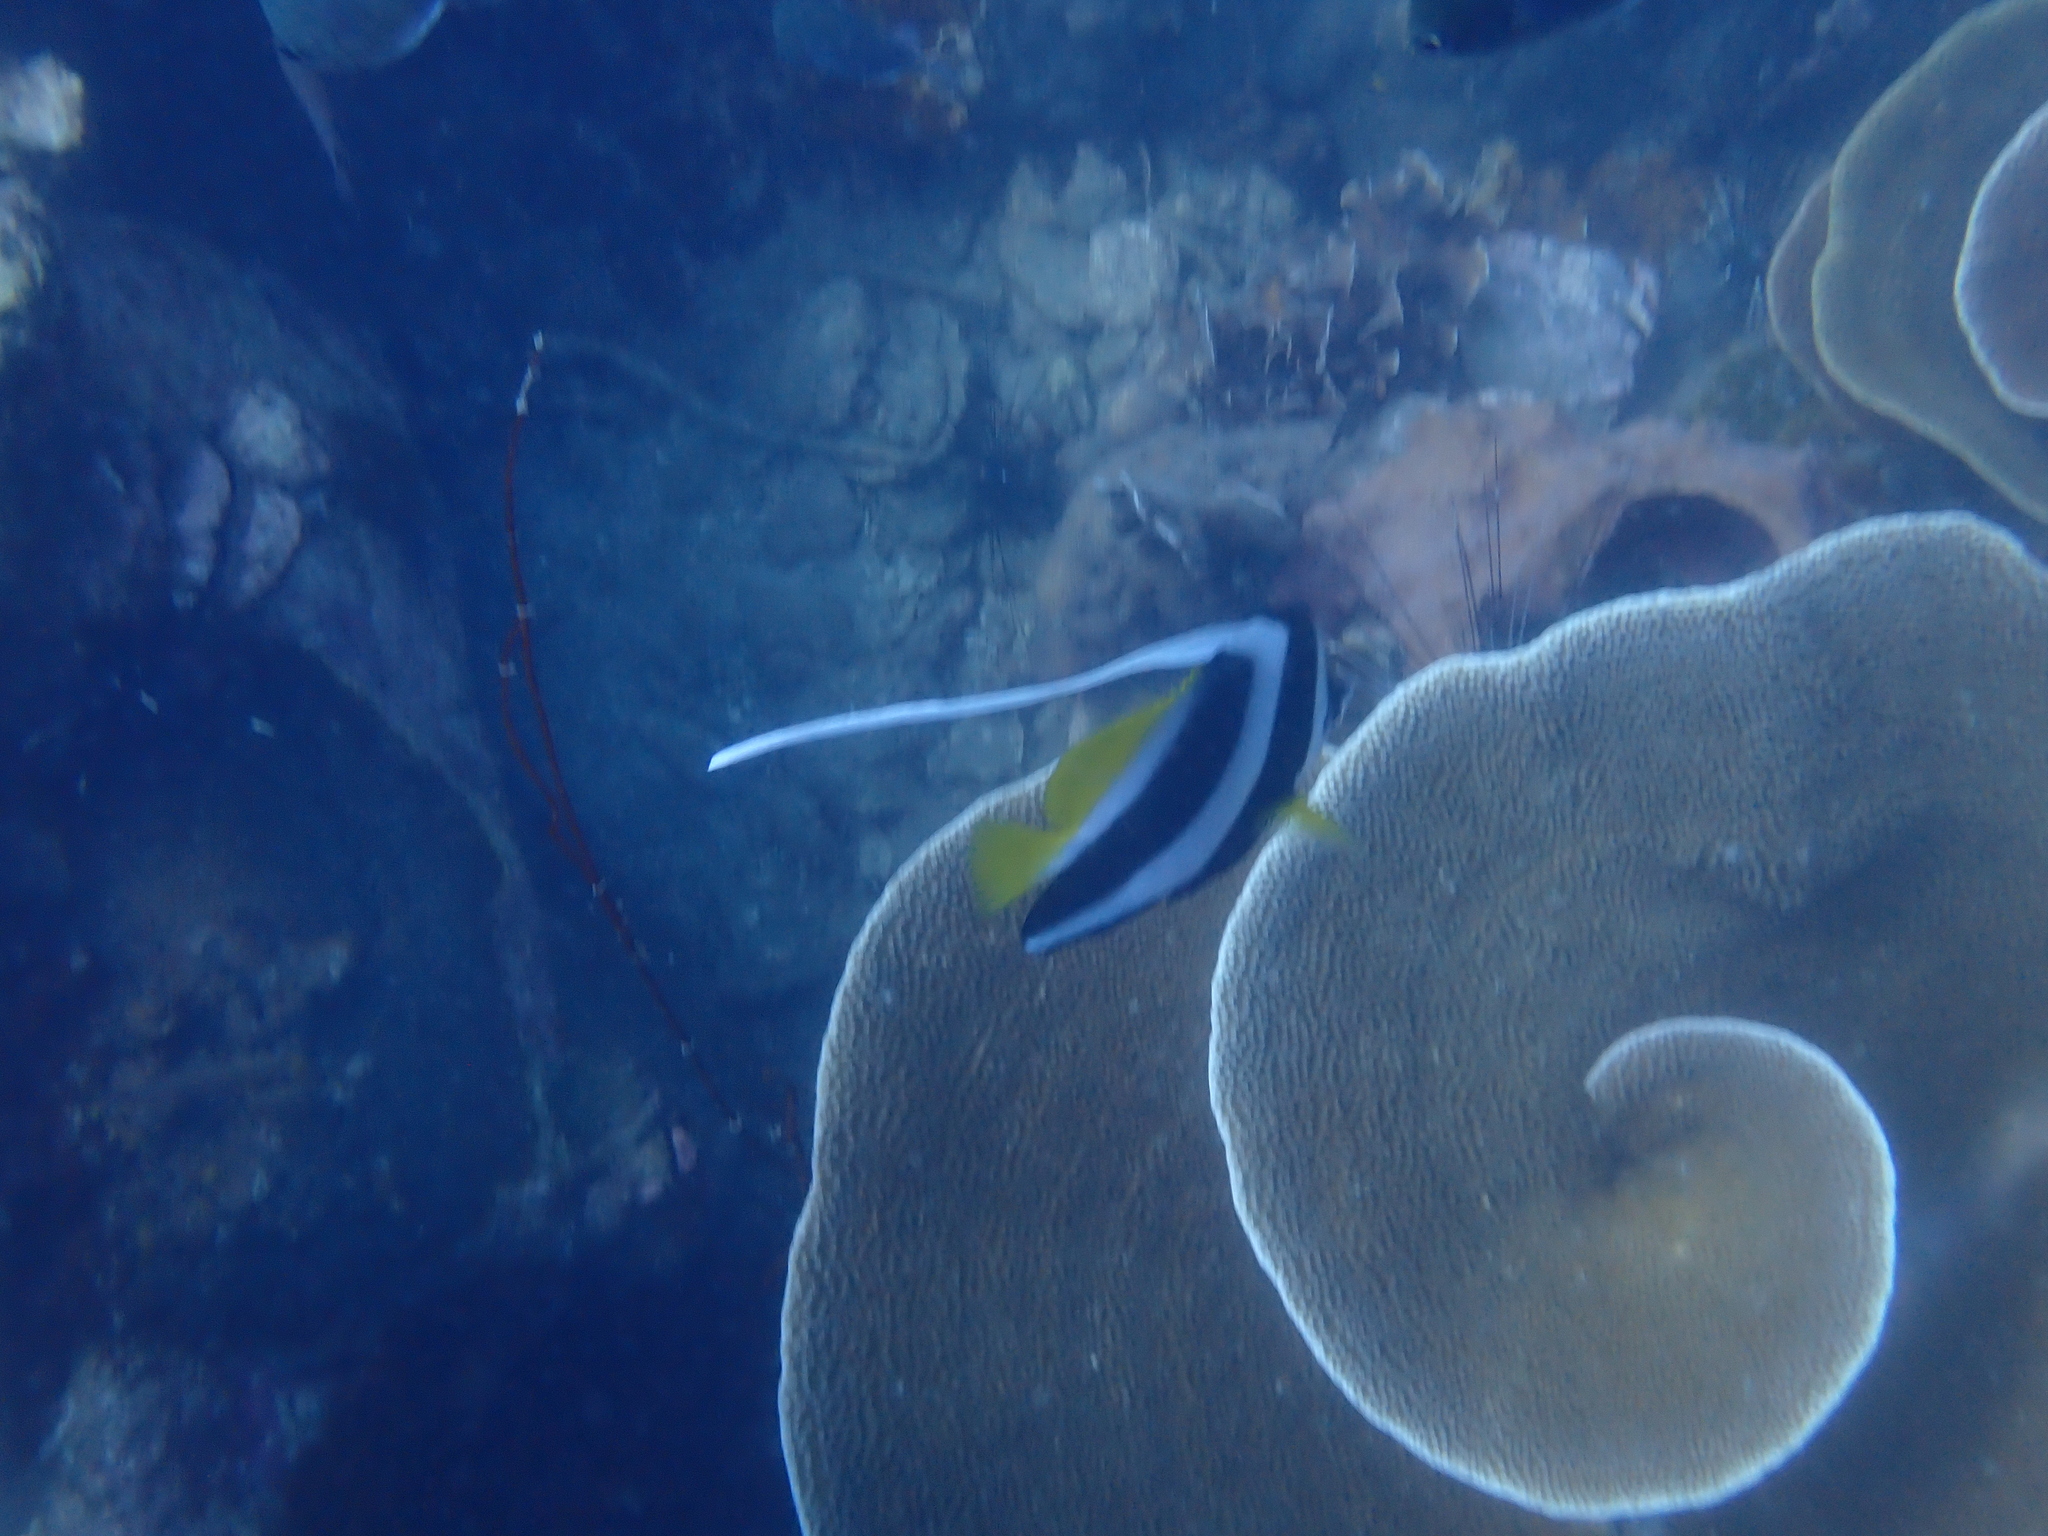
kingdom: Animalia
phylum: Chordata
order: Perciformes
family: Chaetodontidae
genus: Heniochus
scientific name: Heniochus acuminatus
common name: Pennant coralfish
